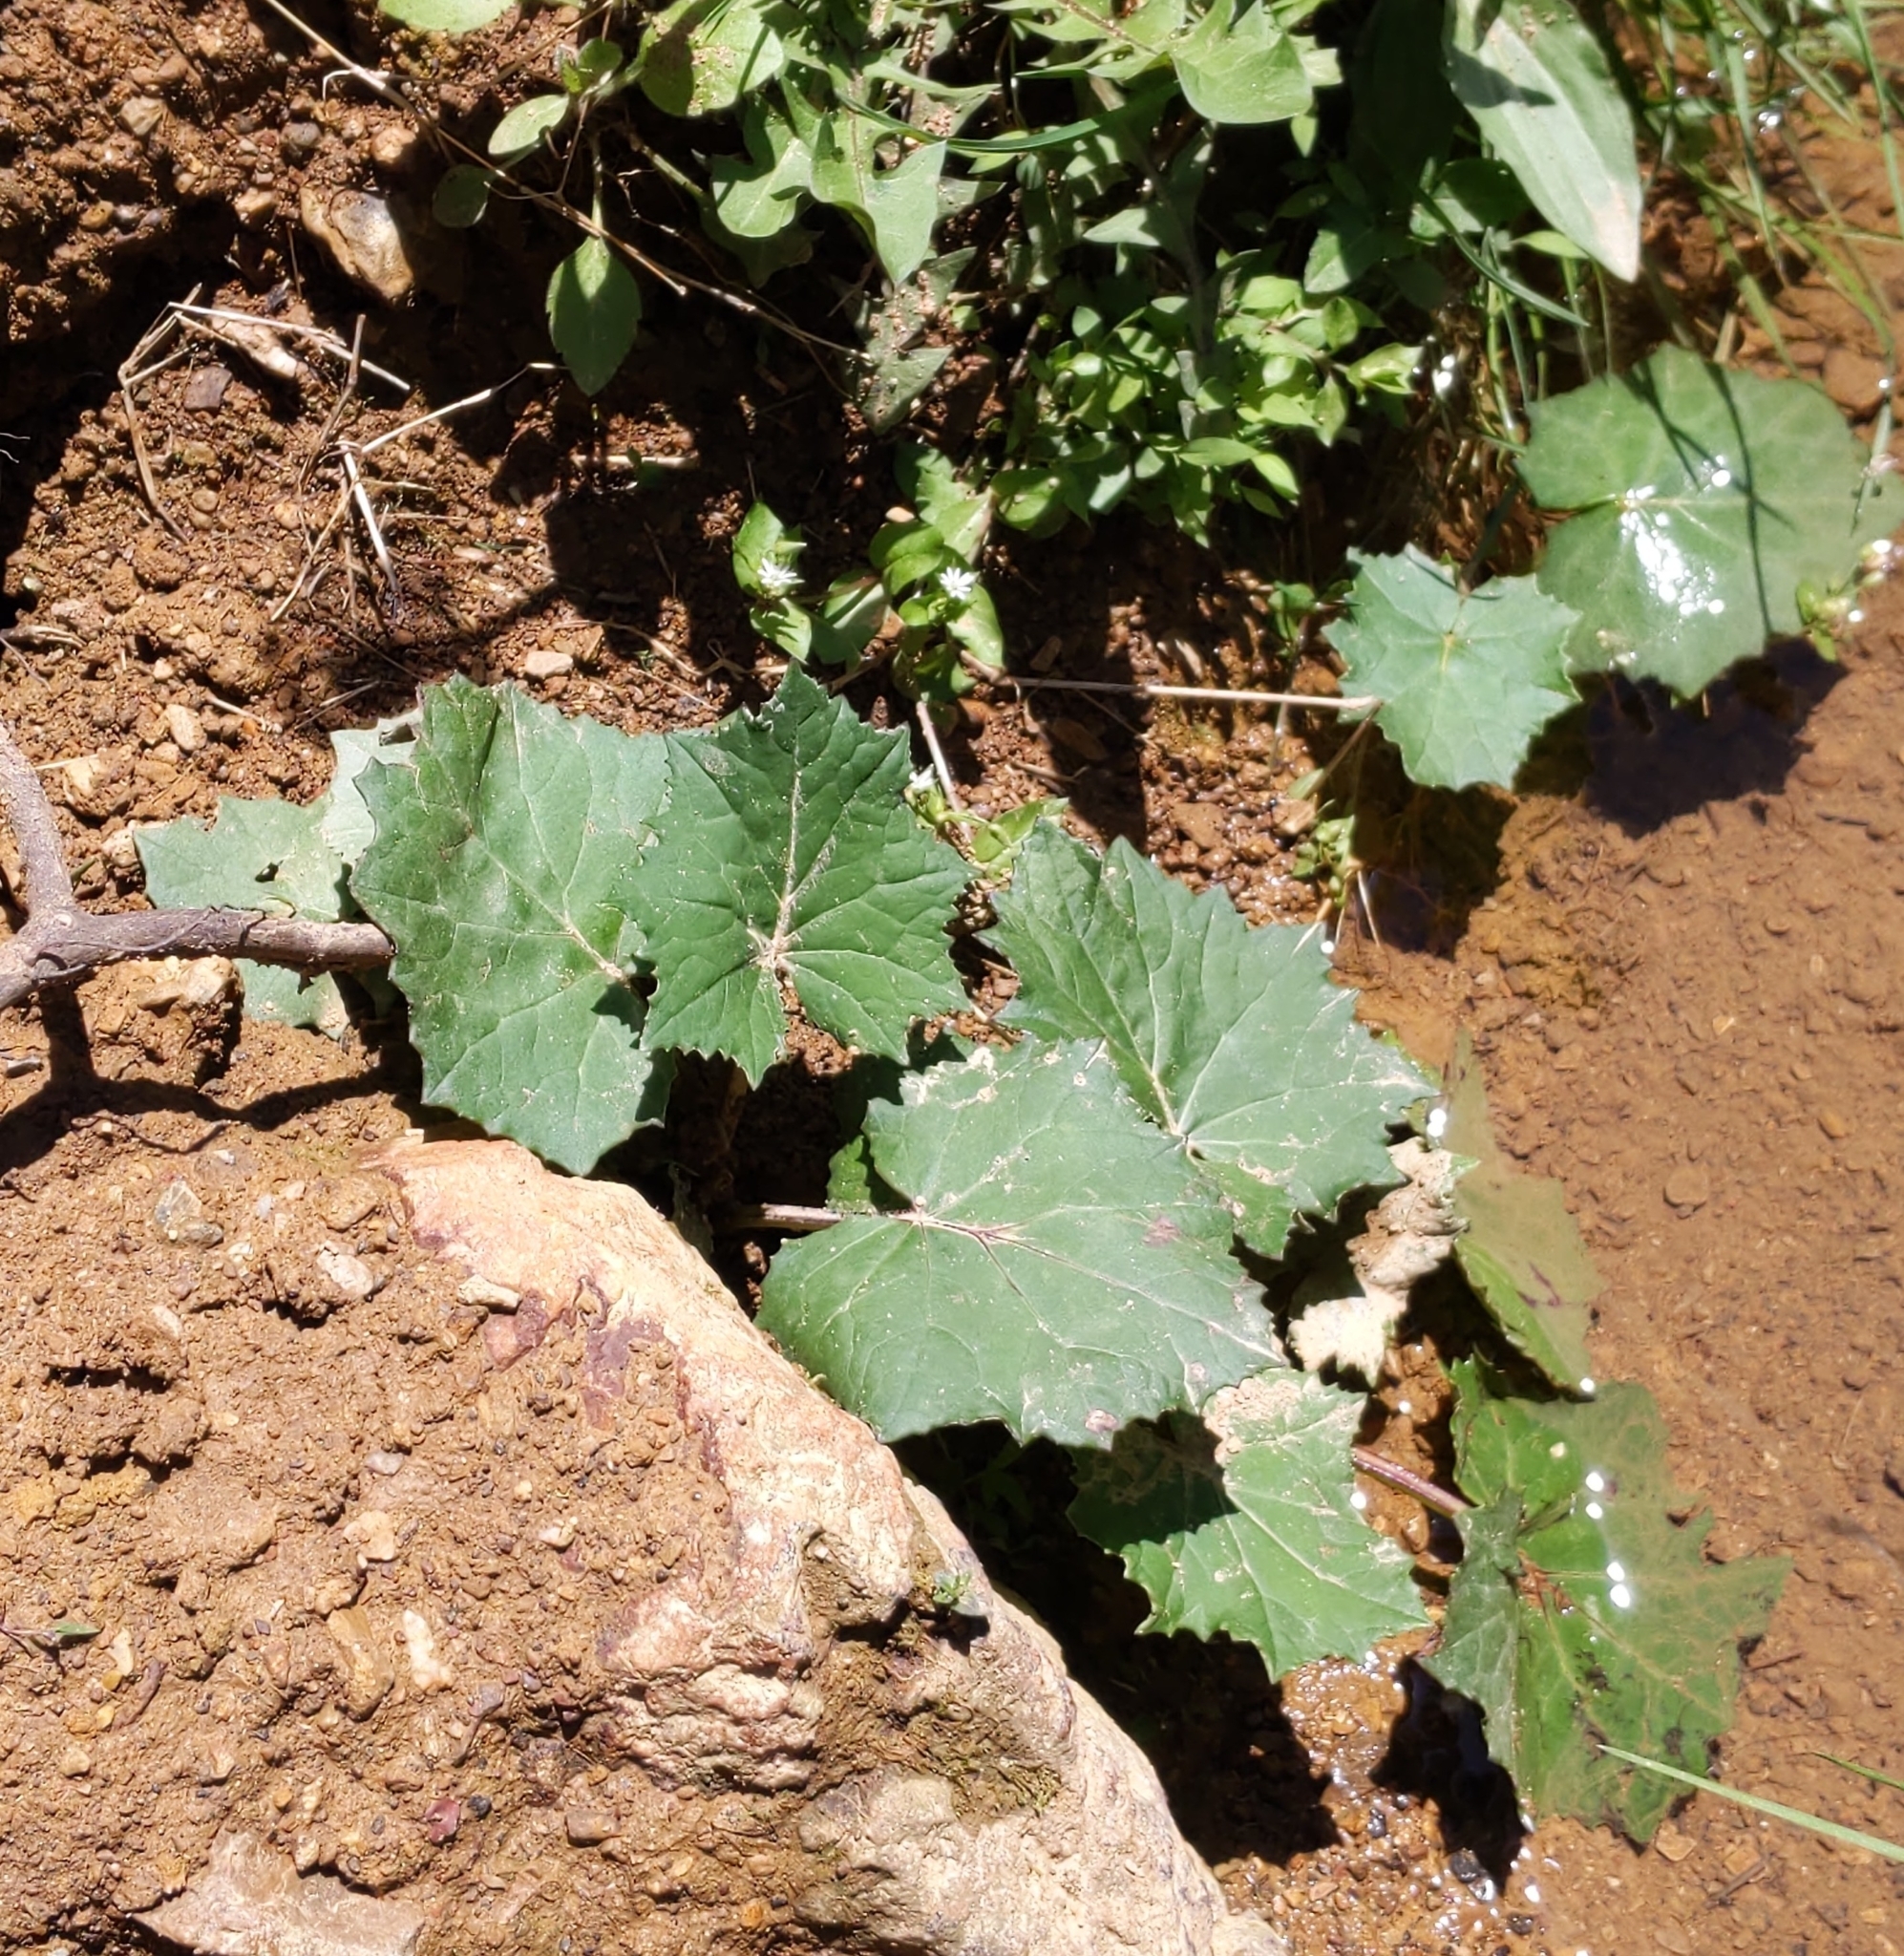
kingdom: Plantae
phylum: Tracheophyta
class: Magnoliopsida
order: Asterales
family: Asteraceae
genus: Tussilago
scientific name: Tussilago farfara
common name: Coltsfoot
